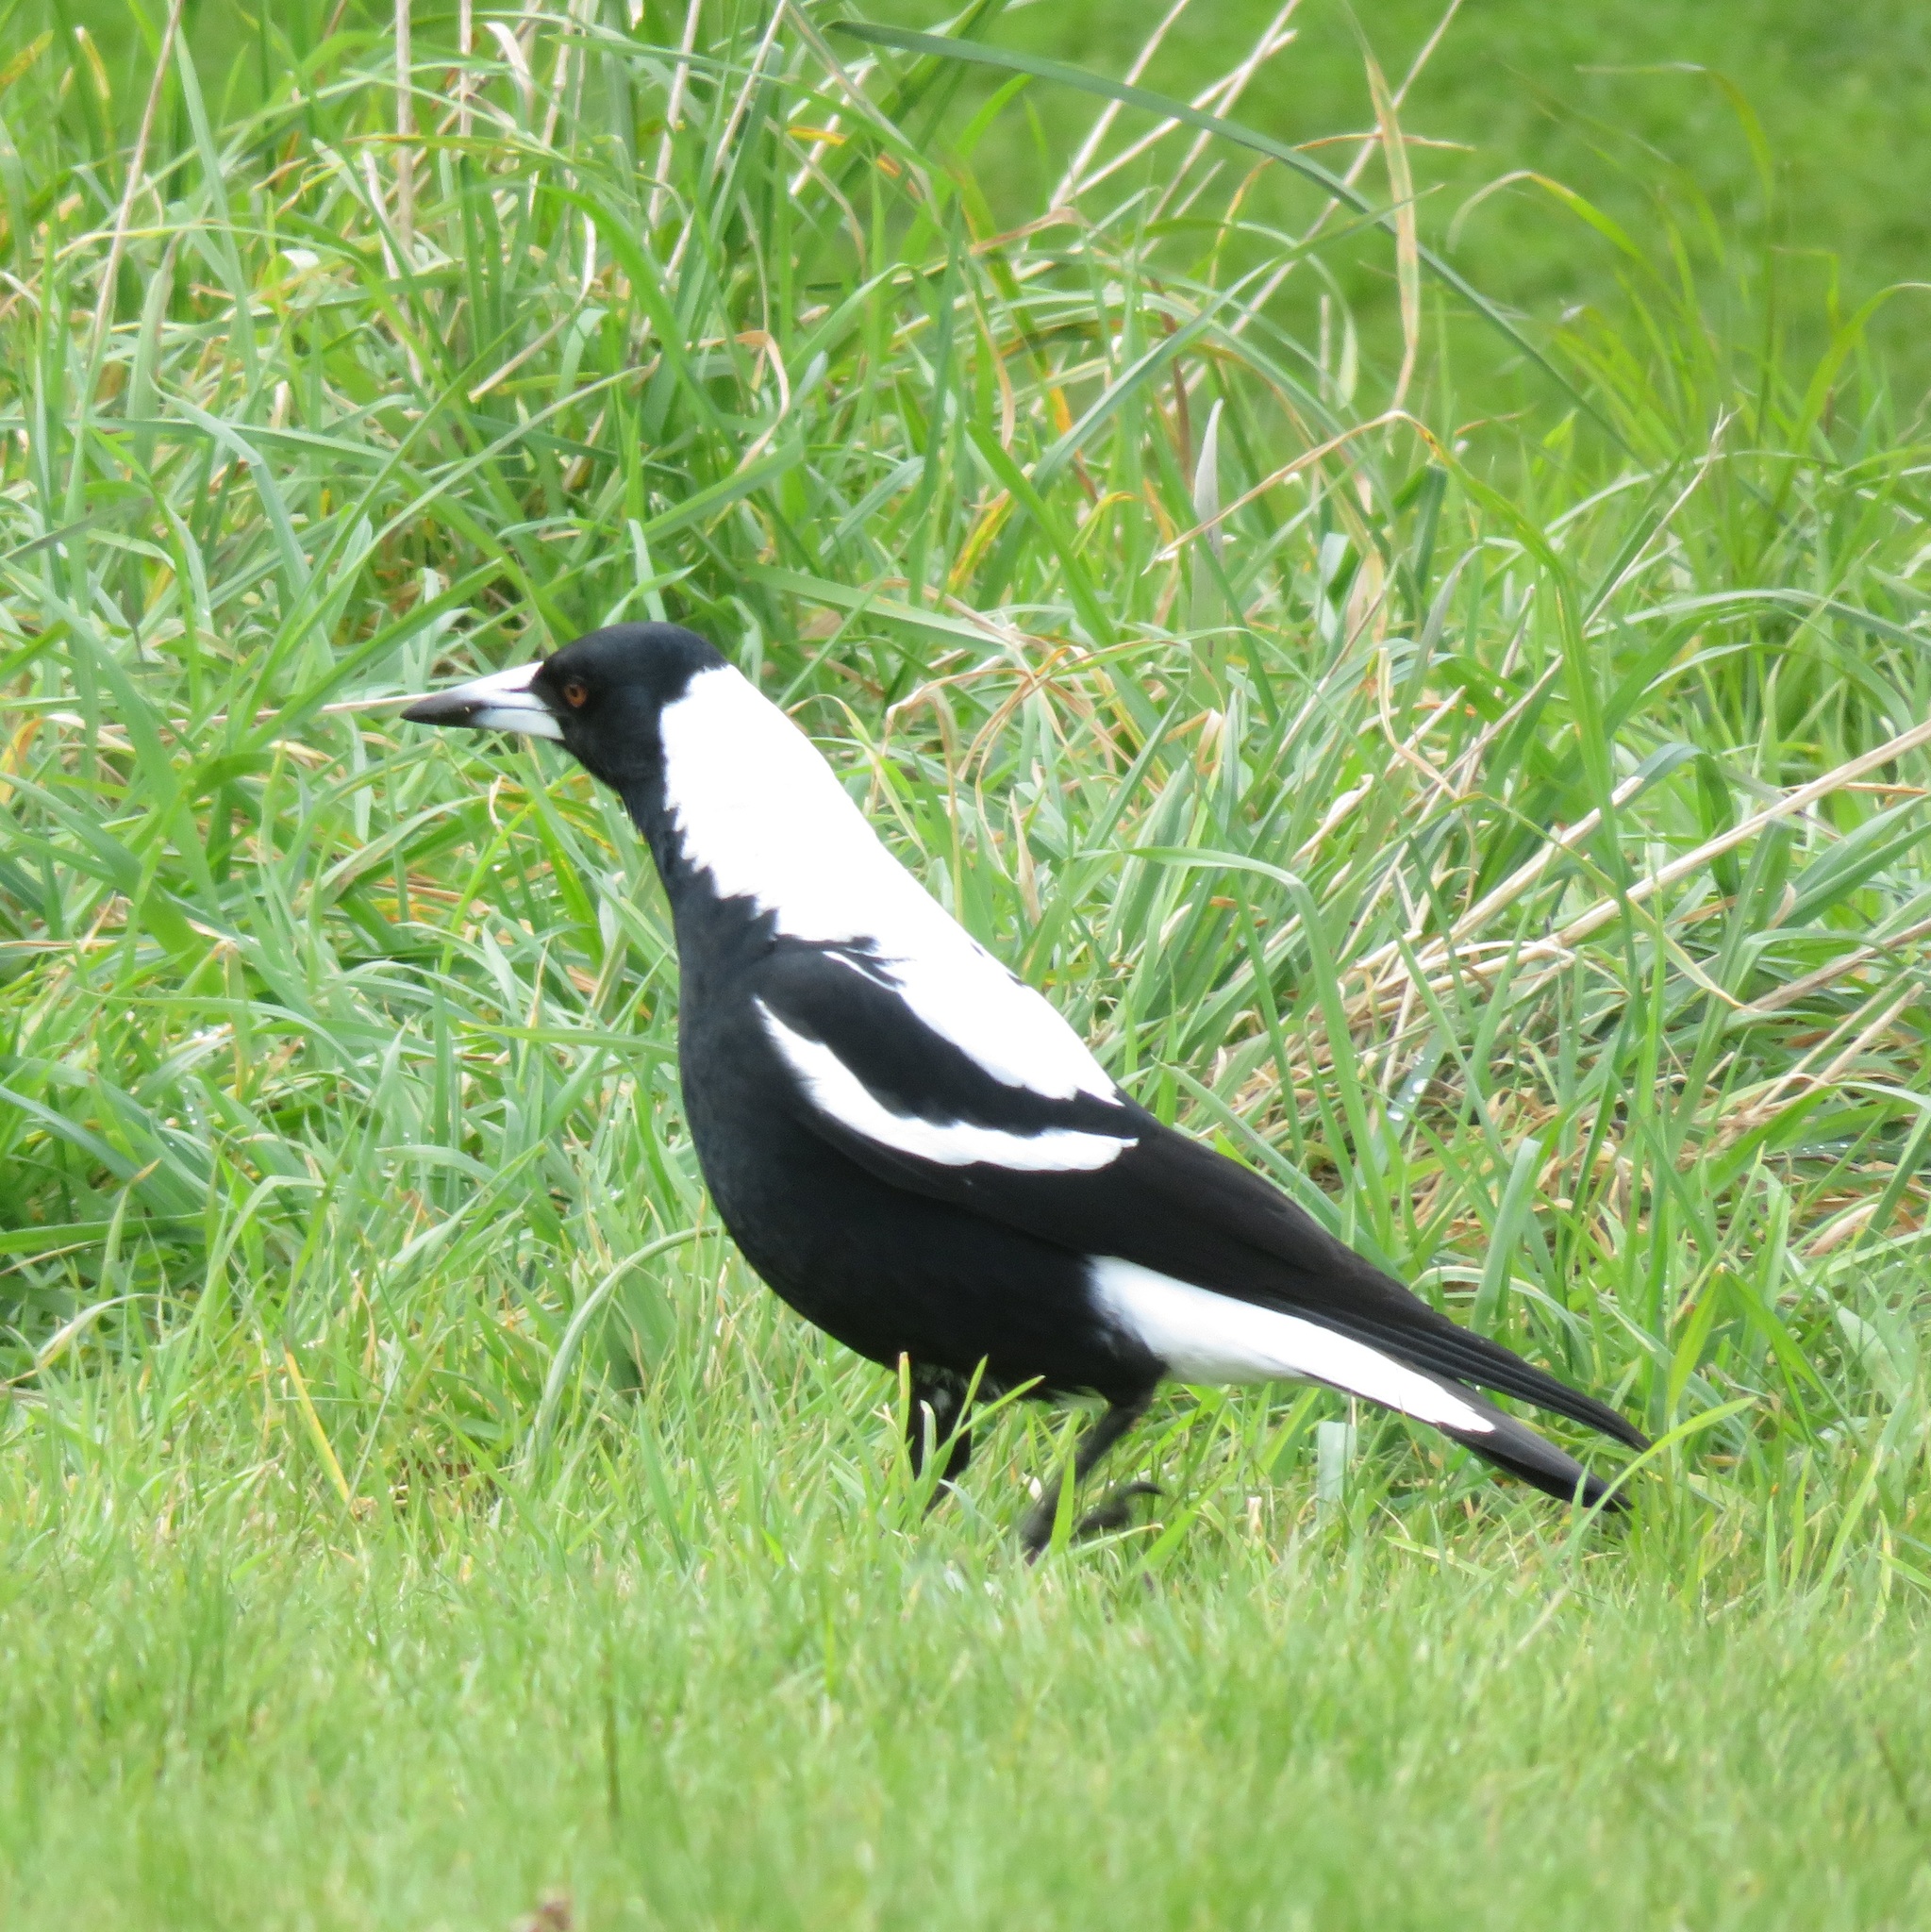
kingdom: Animalia
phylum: Chordata
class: Aves
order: Passeriformes
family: Cracticidae
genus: Gymnorhina
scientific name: Gymnorhina tibicen
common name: Australian magpie
